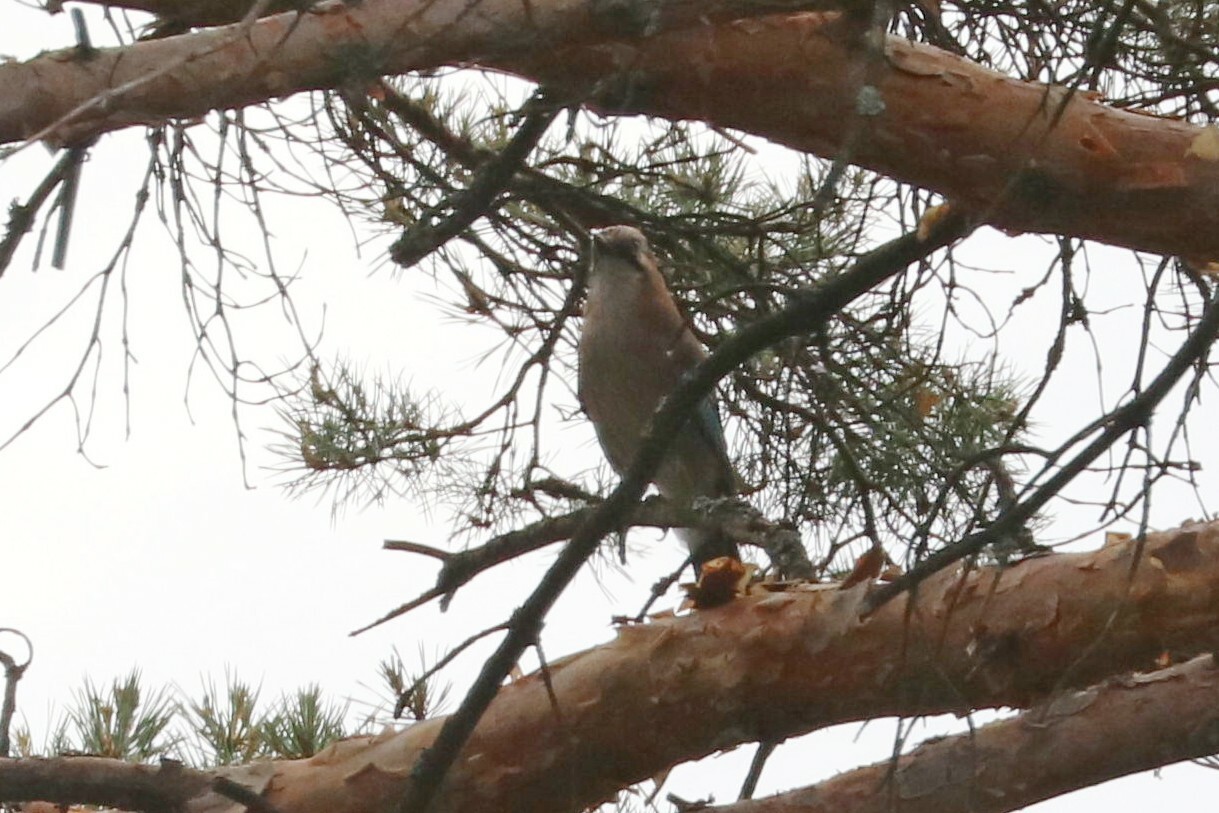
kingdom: Animalia
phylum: Chordata
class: Aves
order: Passeriformes
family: Corvidae
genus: Garrulus
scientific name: Garrulus glandarius
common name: Eurasian jay
